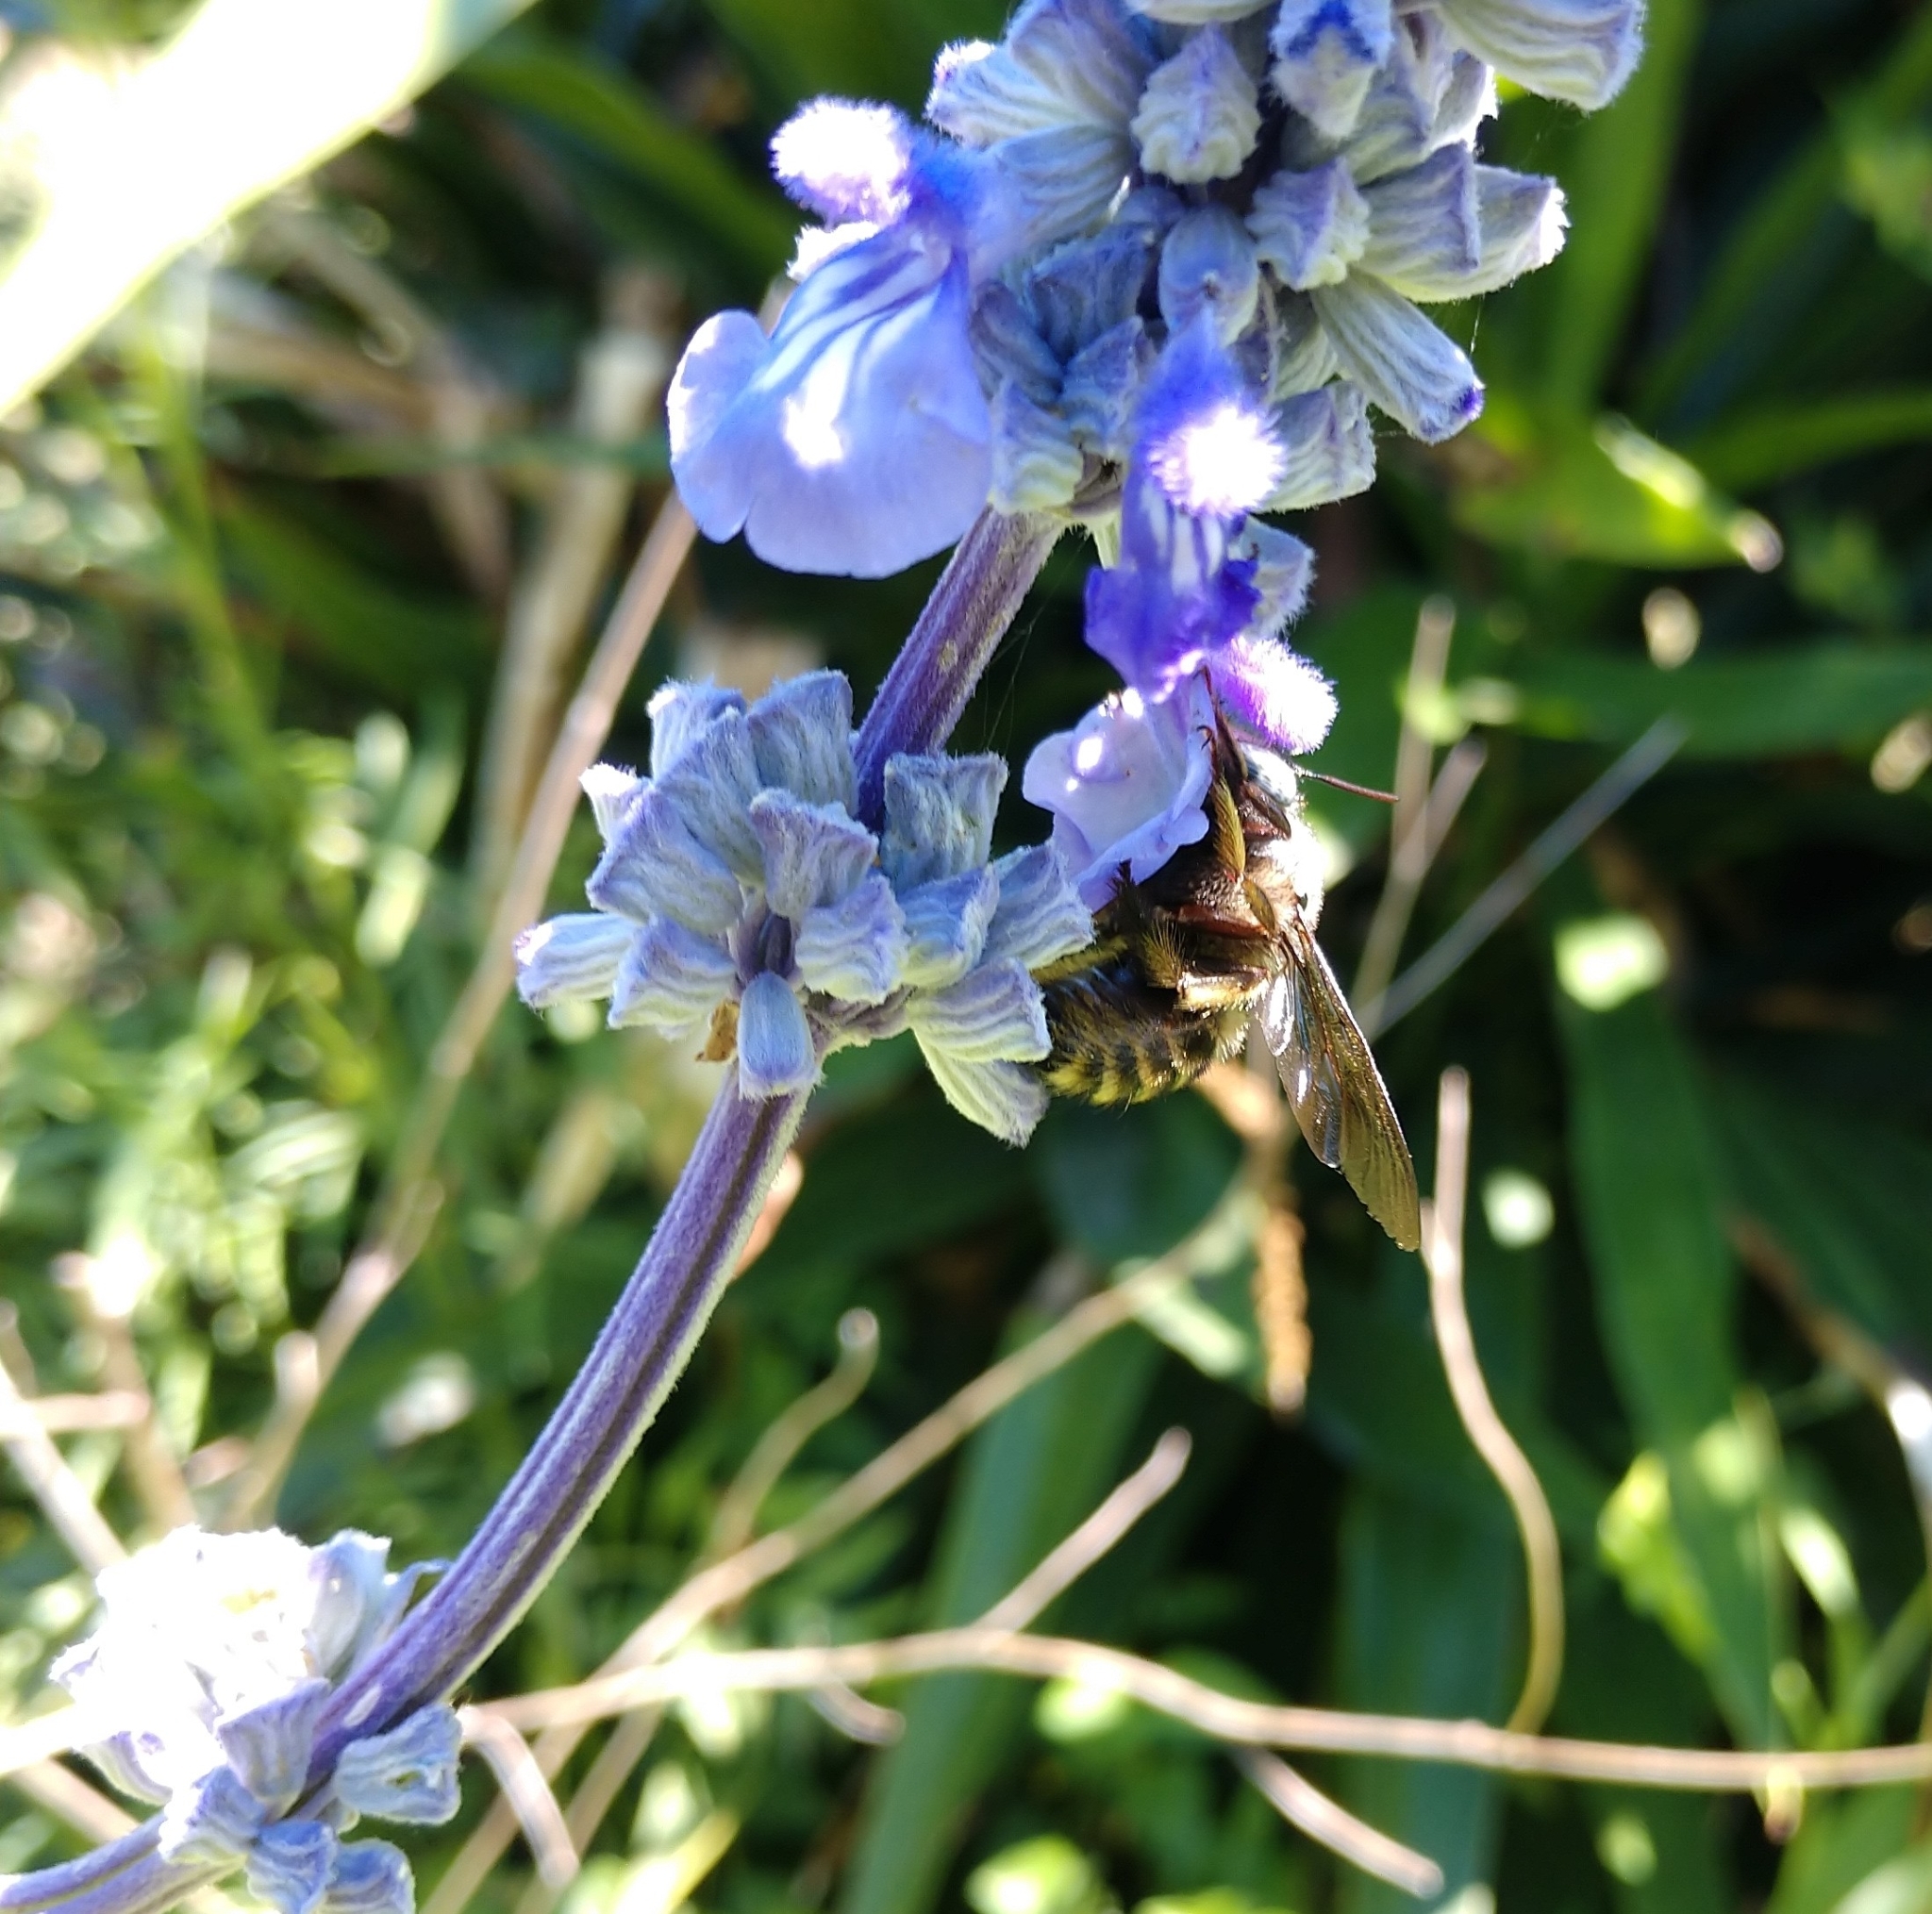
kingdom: Animalia
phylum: Arthropoda
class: Insecta
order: Hymenoptera
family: Apidae
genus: Xylocopa
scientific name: Xylocopa tabaniformis
